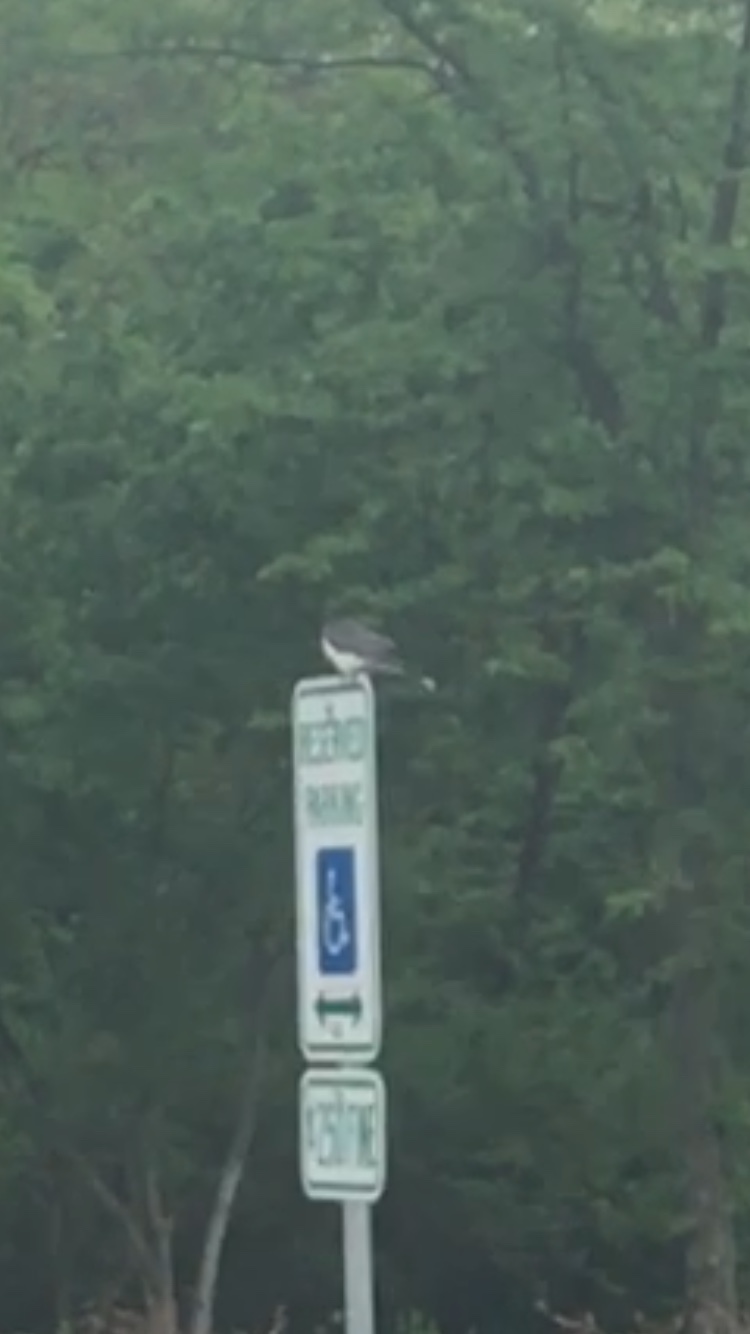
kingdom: Animalia
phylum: Chordata
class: Aves
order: Passeriformes
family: Tyrannidae
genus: Tyrannus
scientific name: Tyrannus tyrannus
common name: Eastern kingbird
